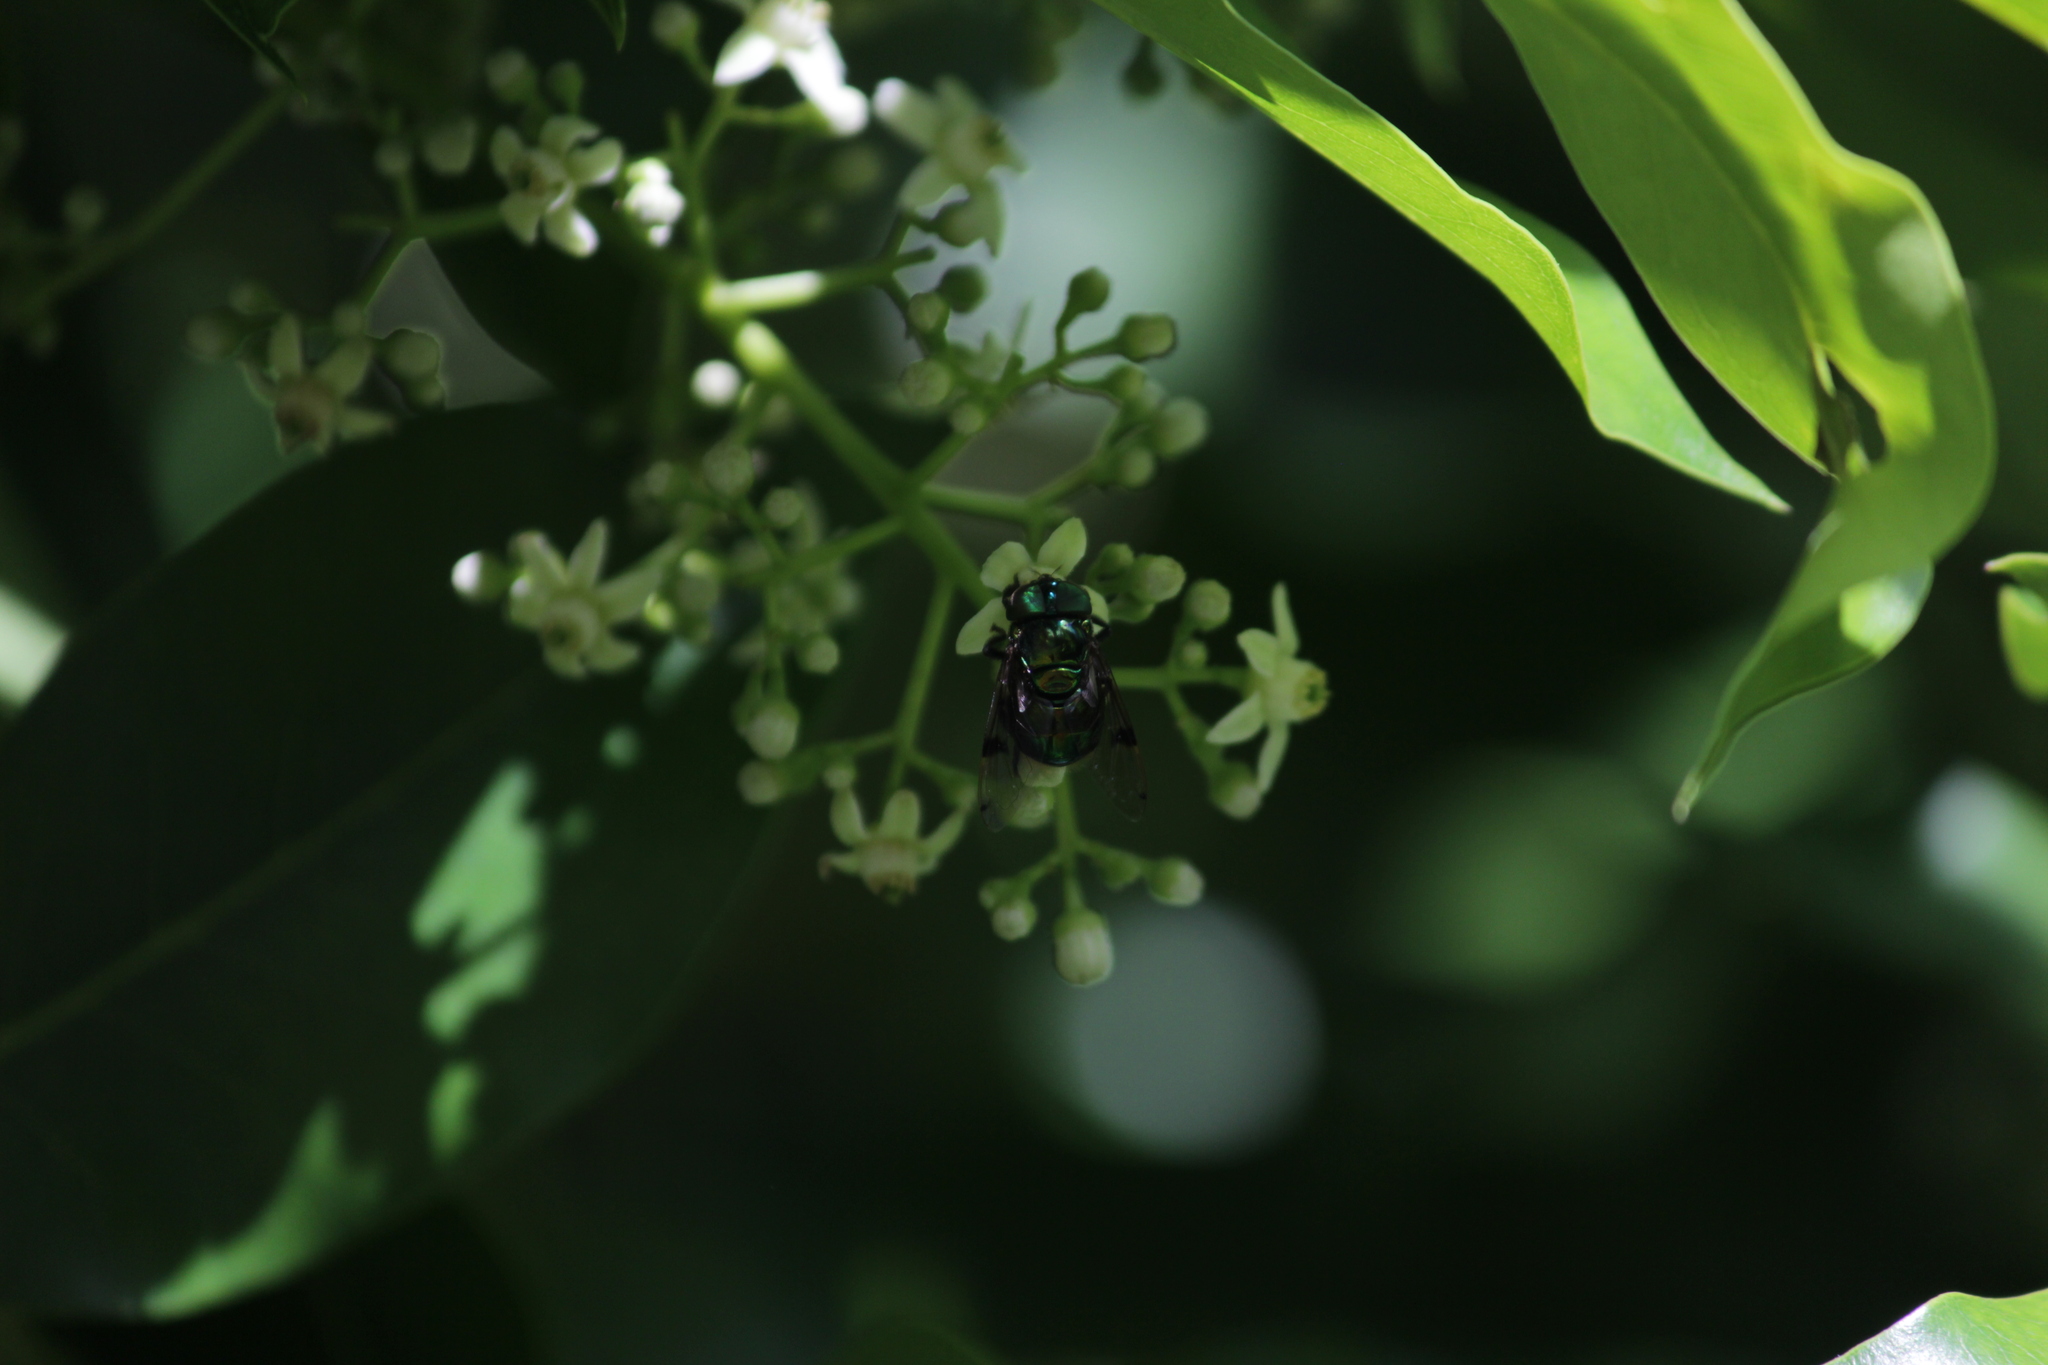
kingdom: Animalia
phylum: Arthropoda
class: Insecta
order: Diptera
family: Syrphidae
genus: Ornidia
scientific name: Ornidia obesa
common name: Syrphid fly
